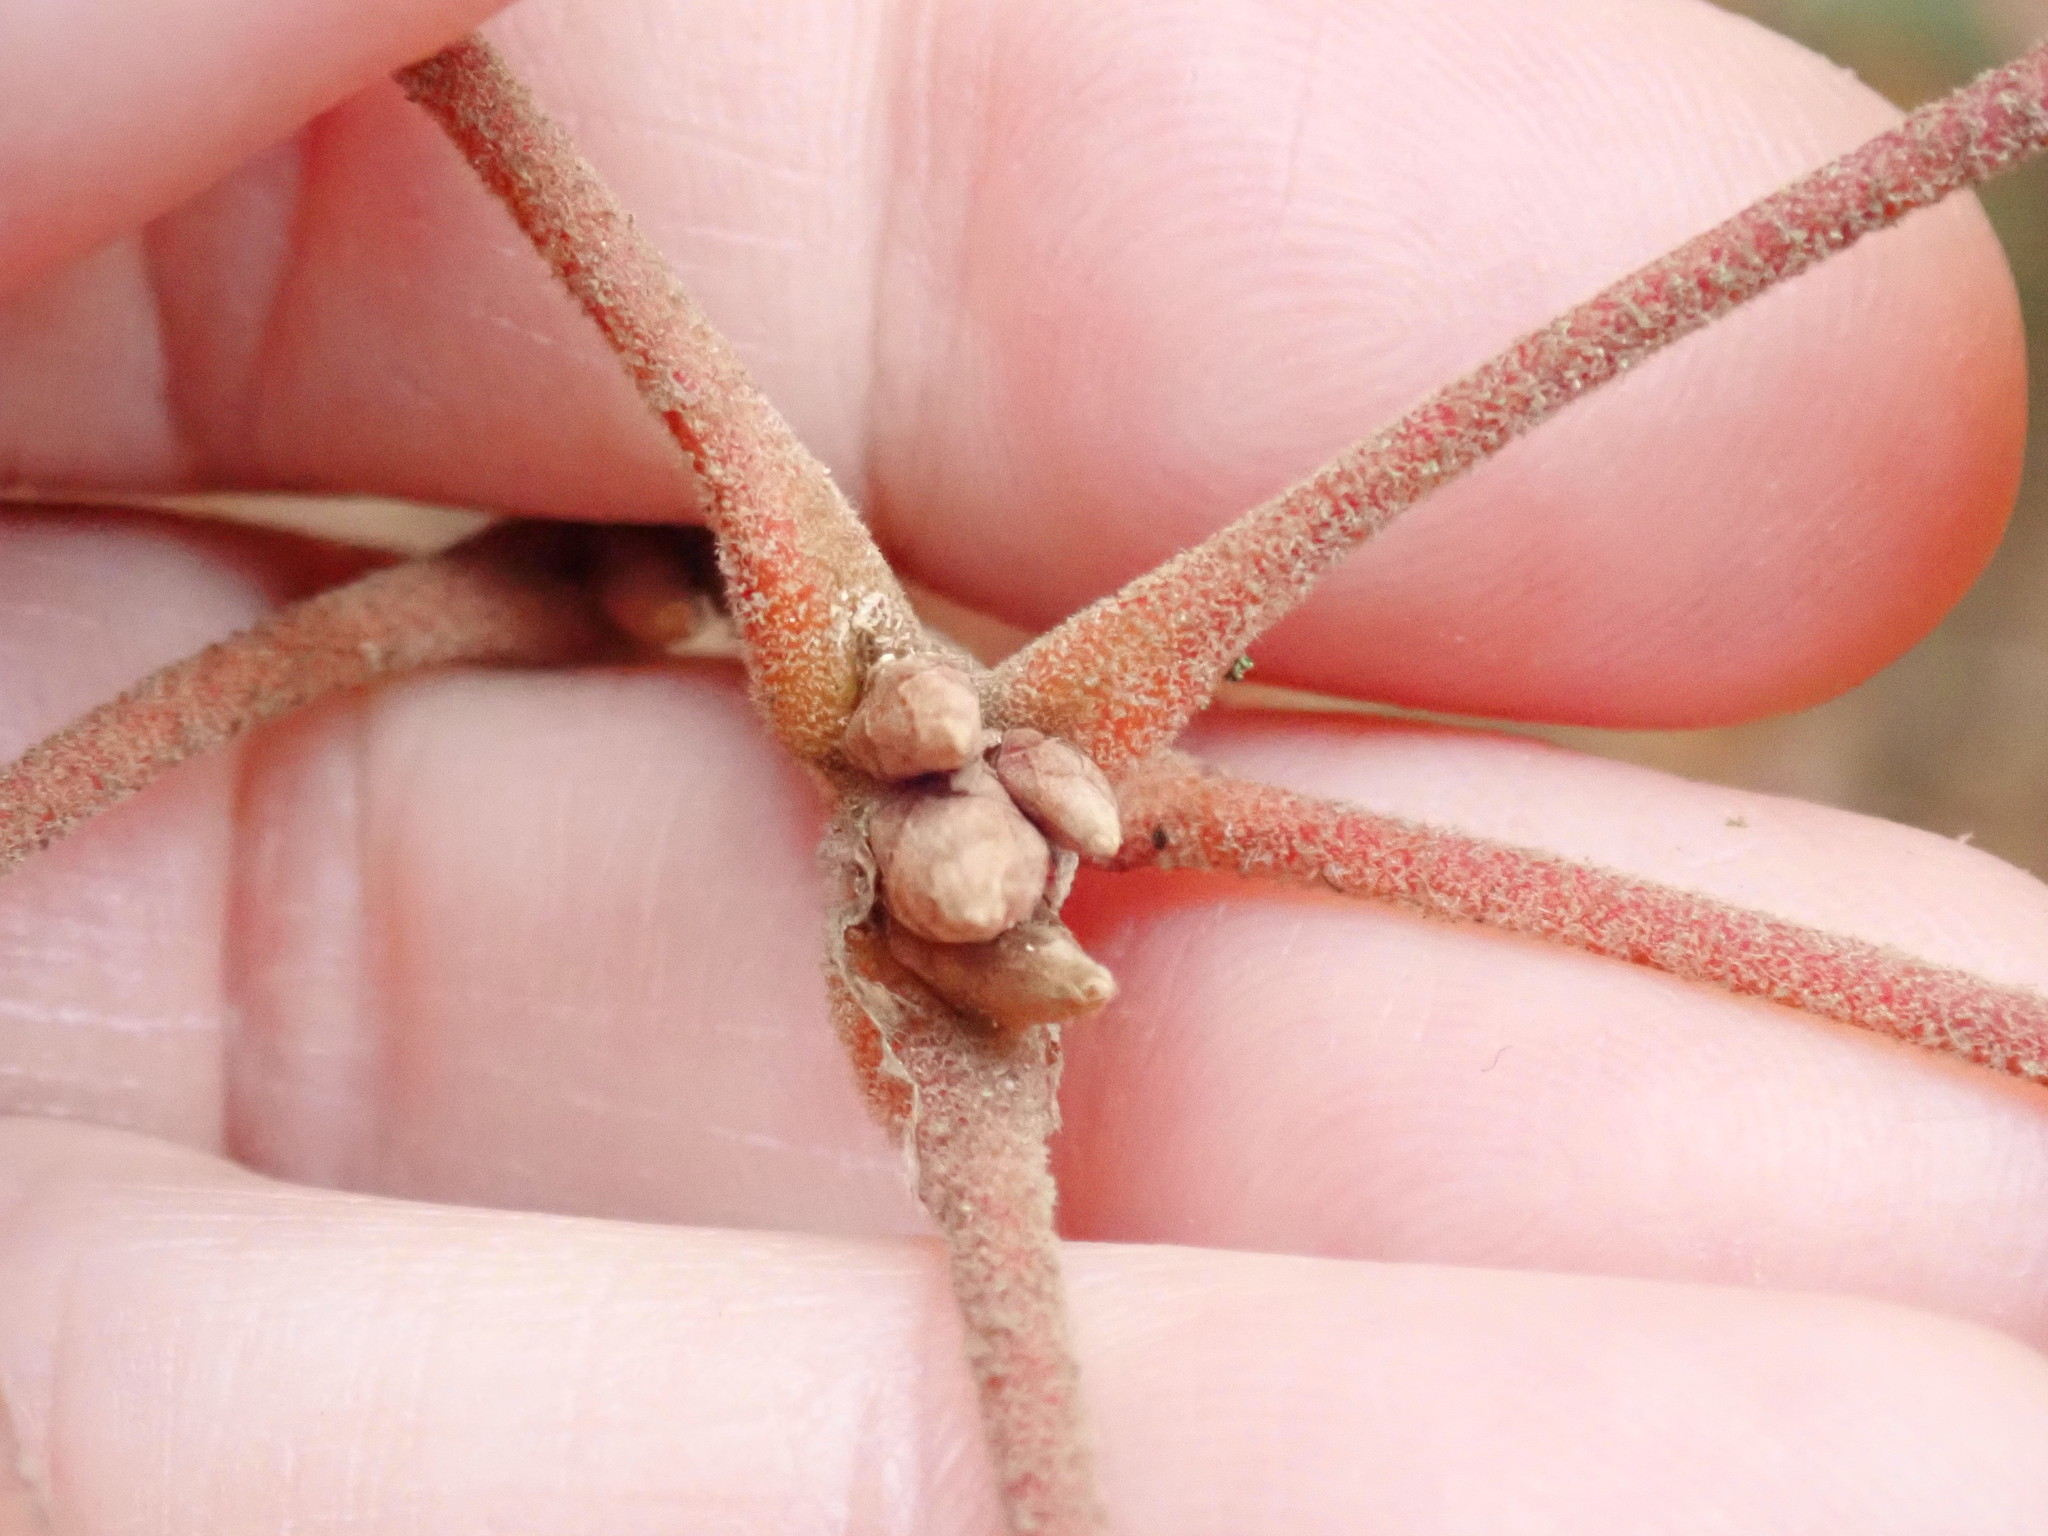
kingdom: Plantae
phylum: Tracheophyta
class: Magnoliopsida
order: Fagales
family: Fagaceae
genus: Quercus
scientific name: Quercus velutina
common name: Black oak
